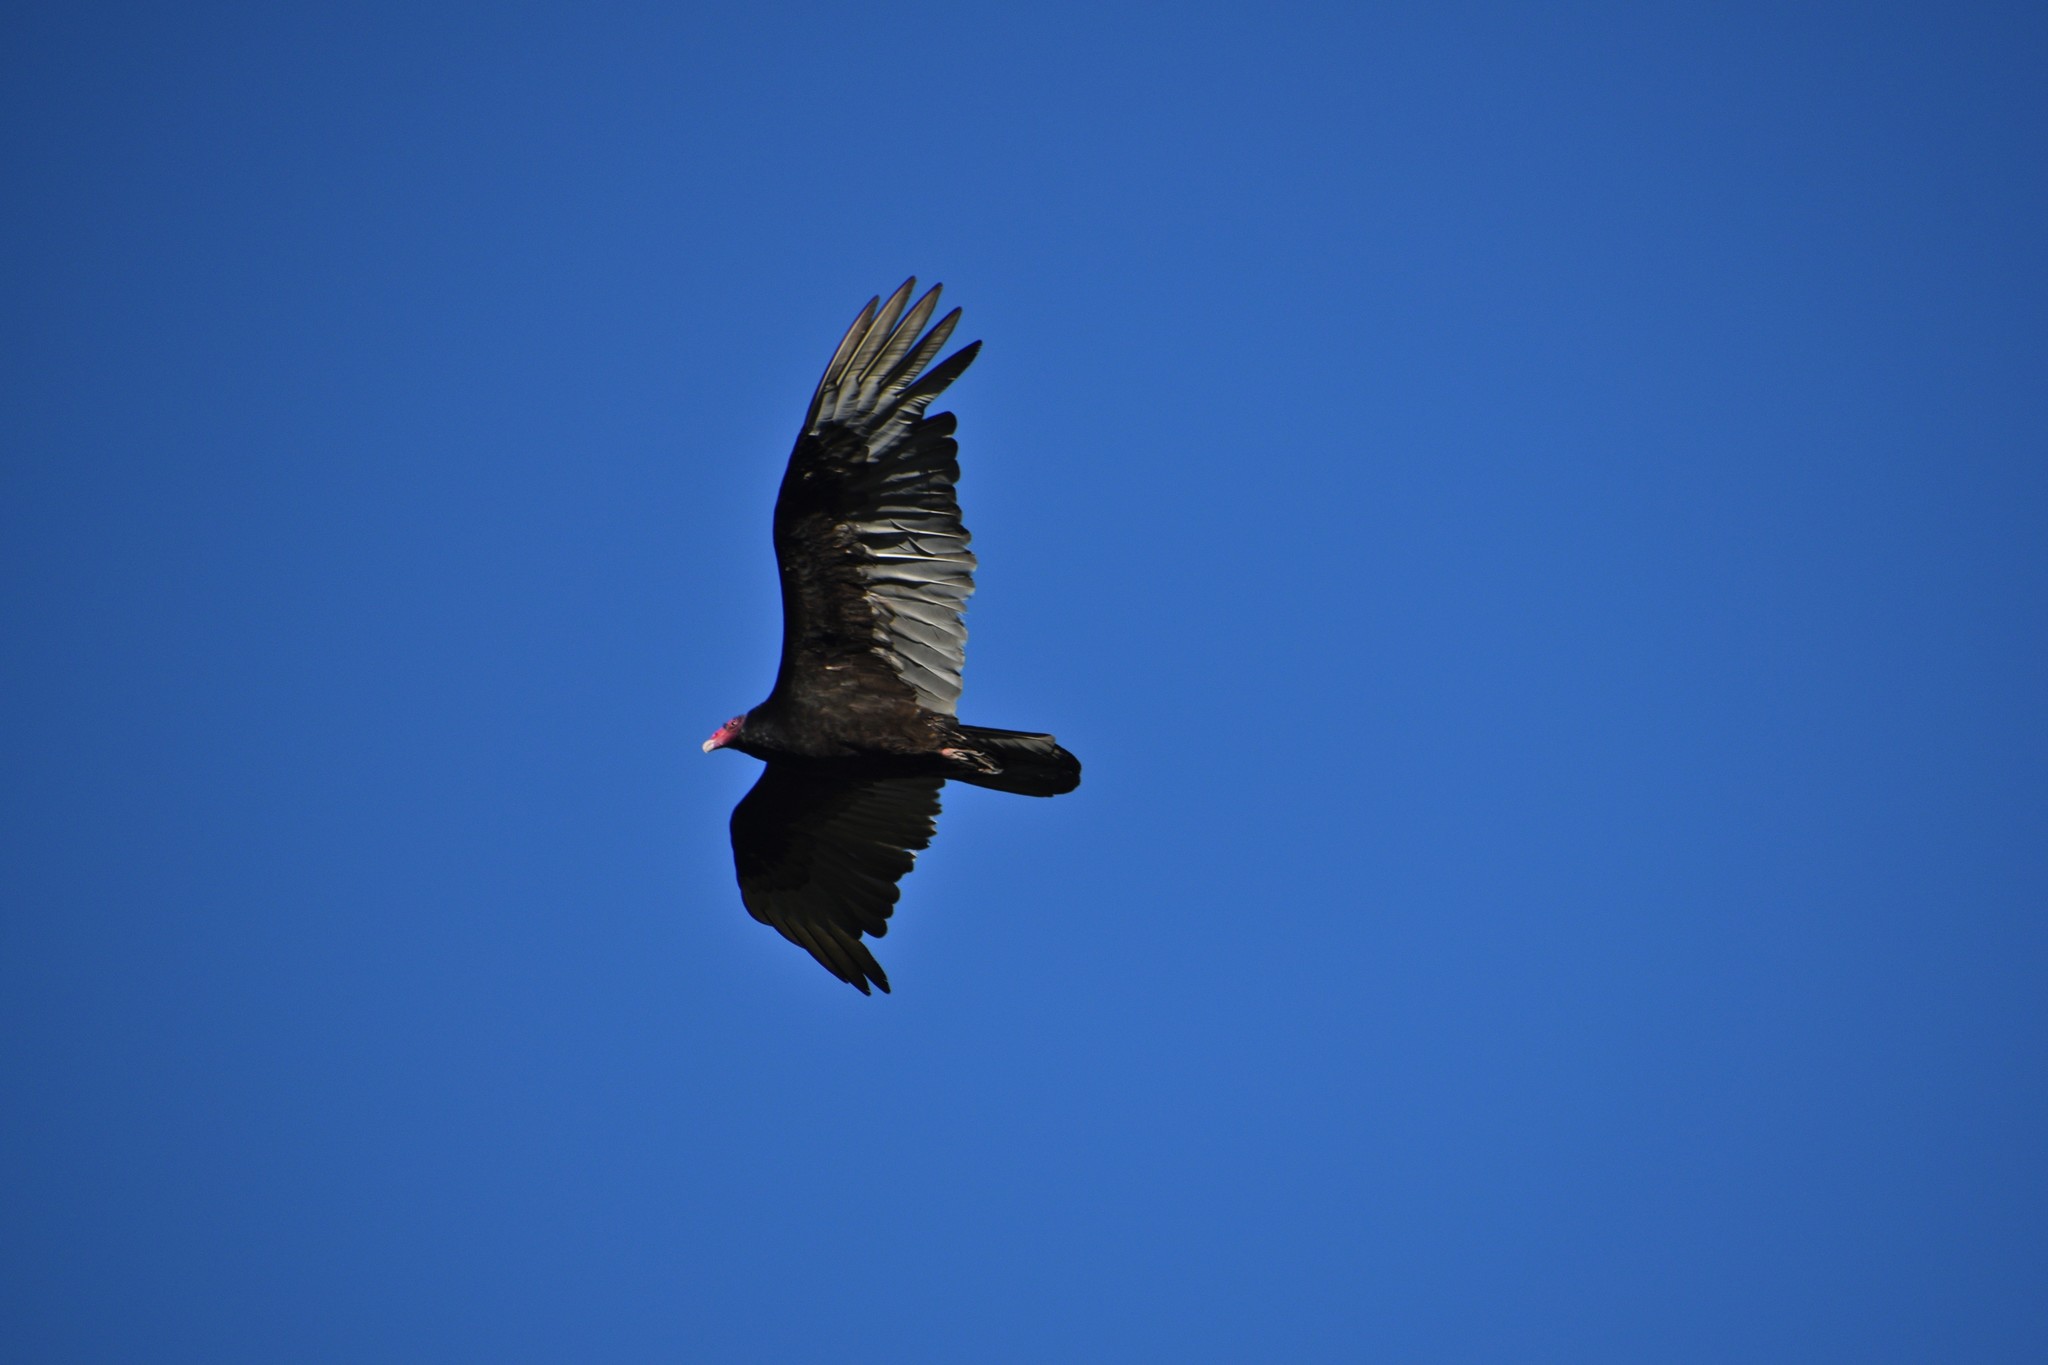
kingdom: Animalia
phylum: Chordata
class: Aves
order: Accipitriformes
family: Cathartidae
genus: Cathartes
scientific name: Cathartes aura
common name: Turkey vulture
